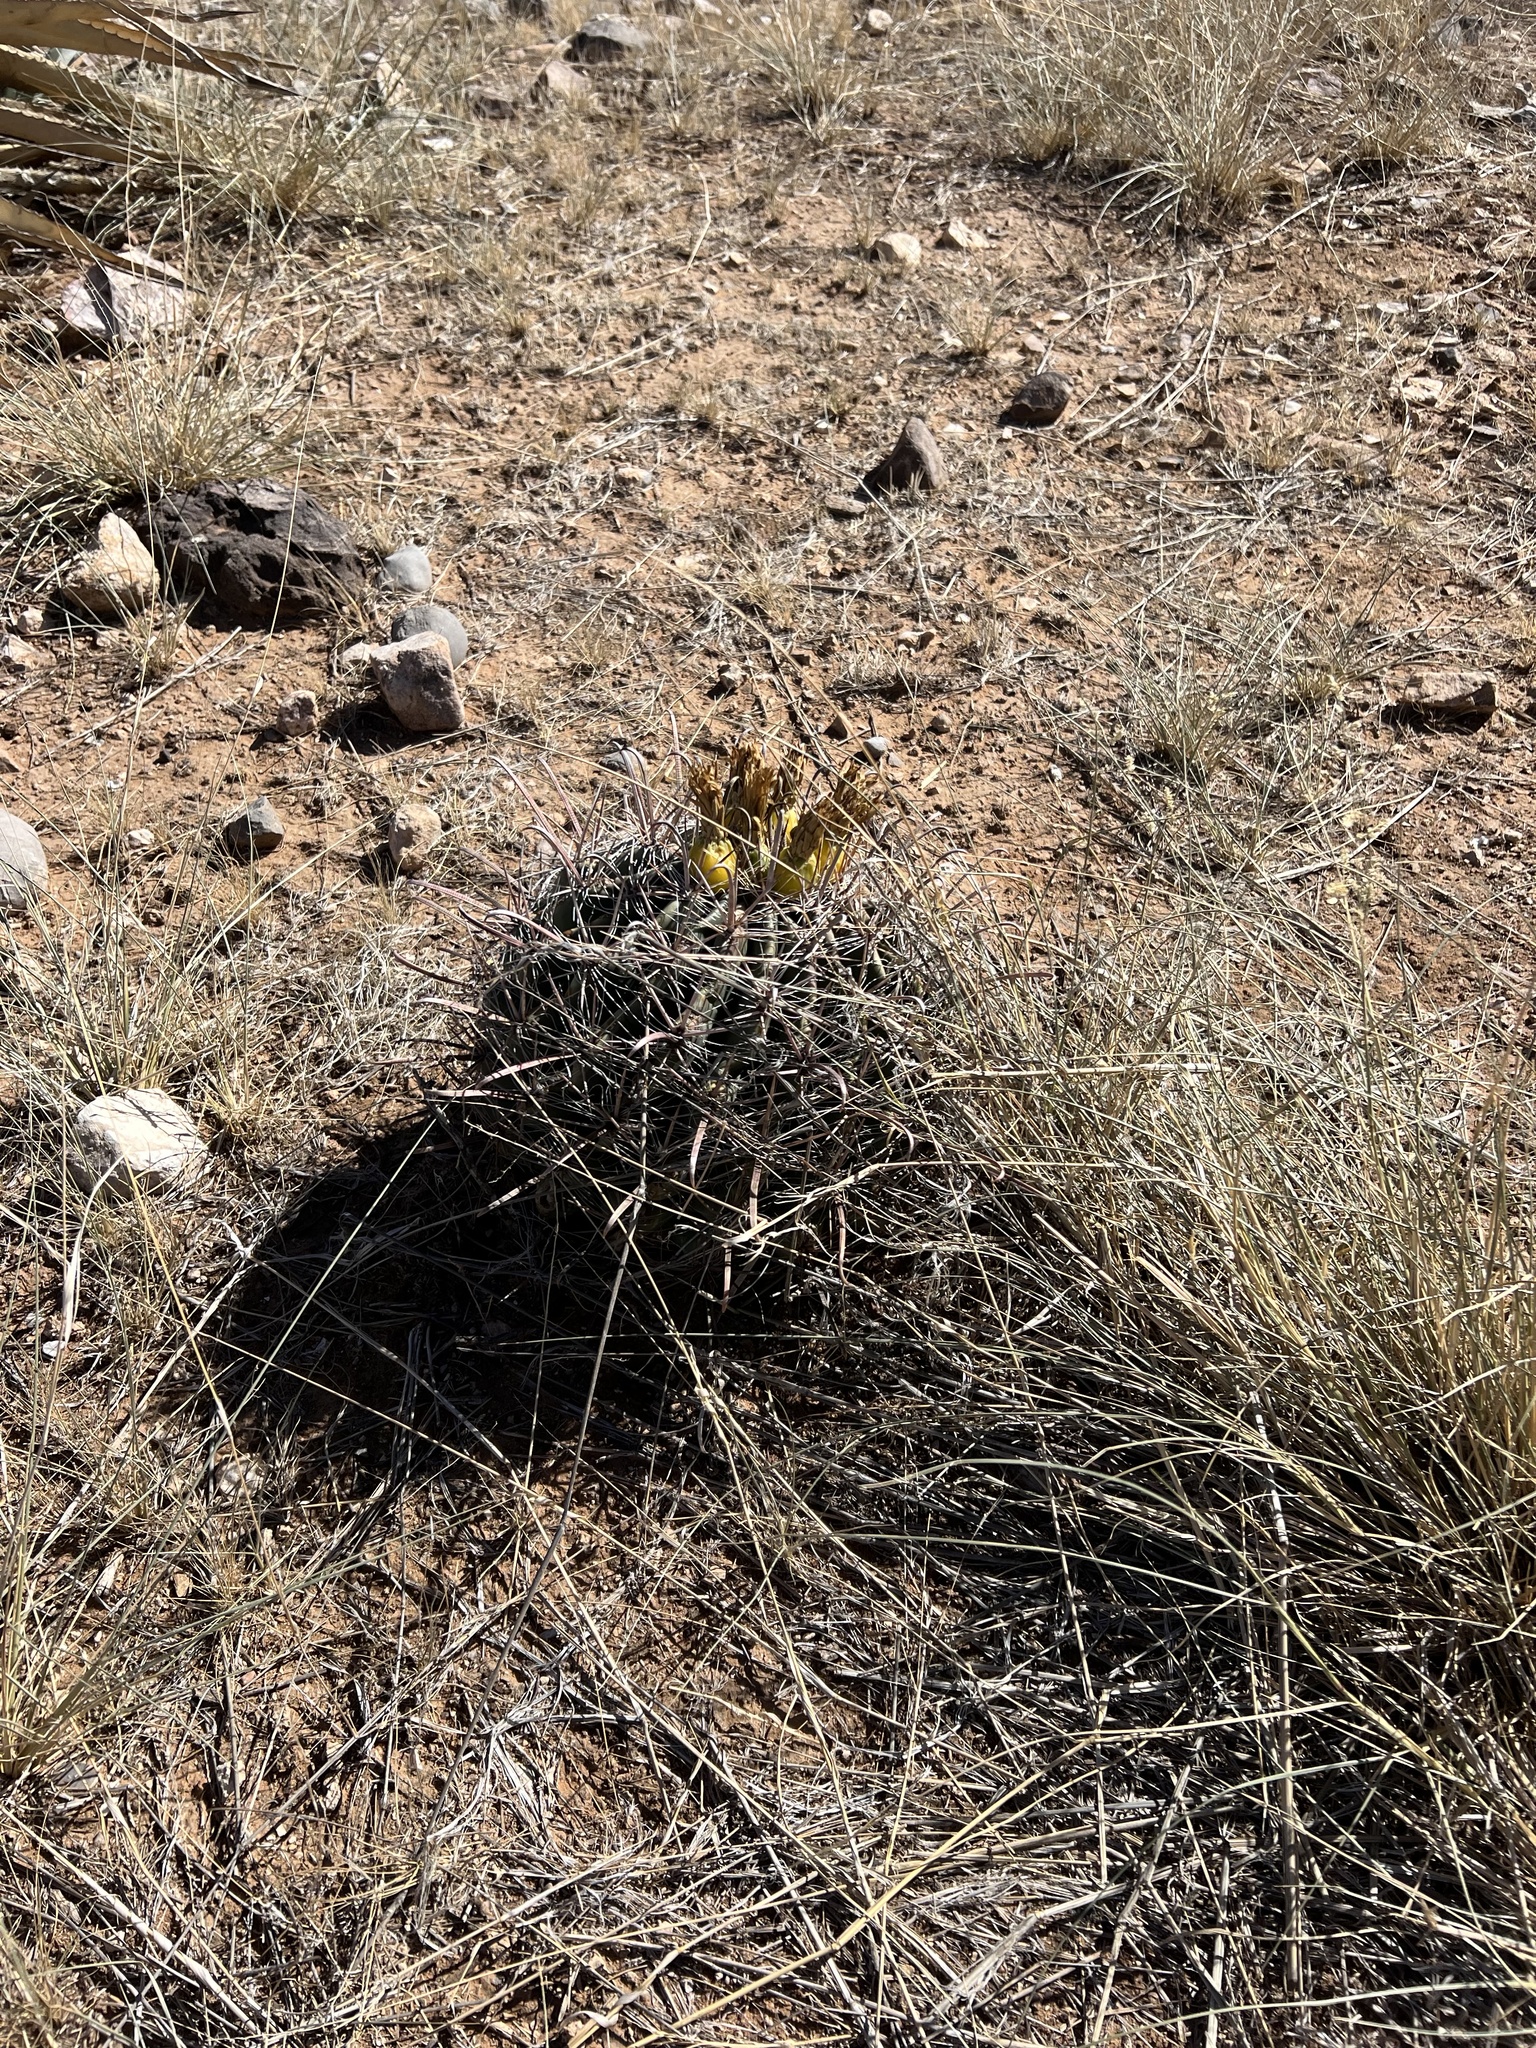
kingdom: Plantae
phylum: Tracheophyta
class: Magnoliopsida
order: Caryophyllales
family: Cactaceae
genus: Ferocactus
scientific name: Ferocactus wislizeni
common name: Candy barrel cactus
